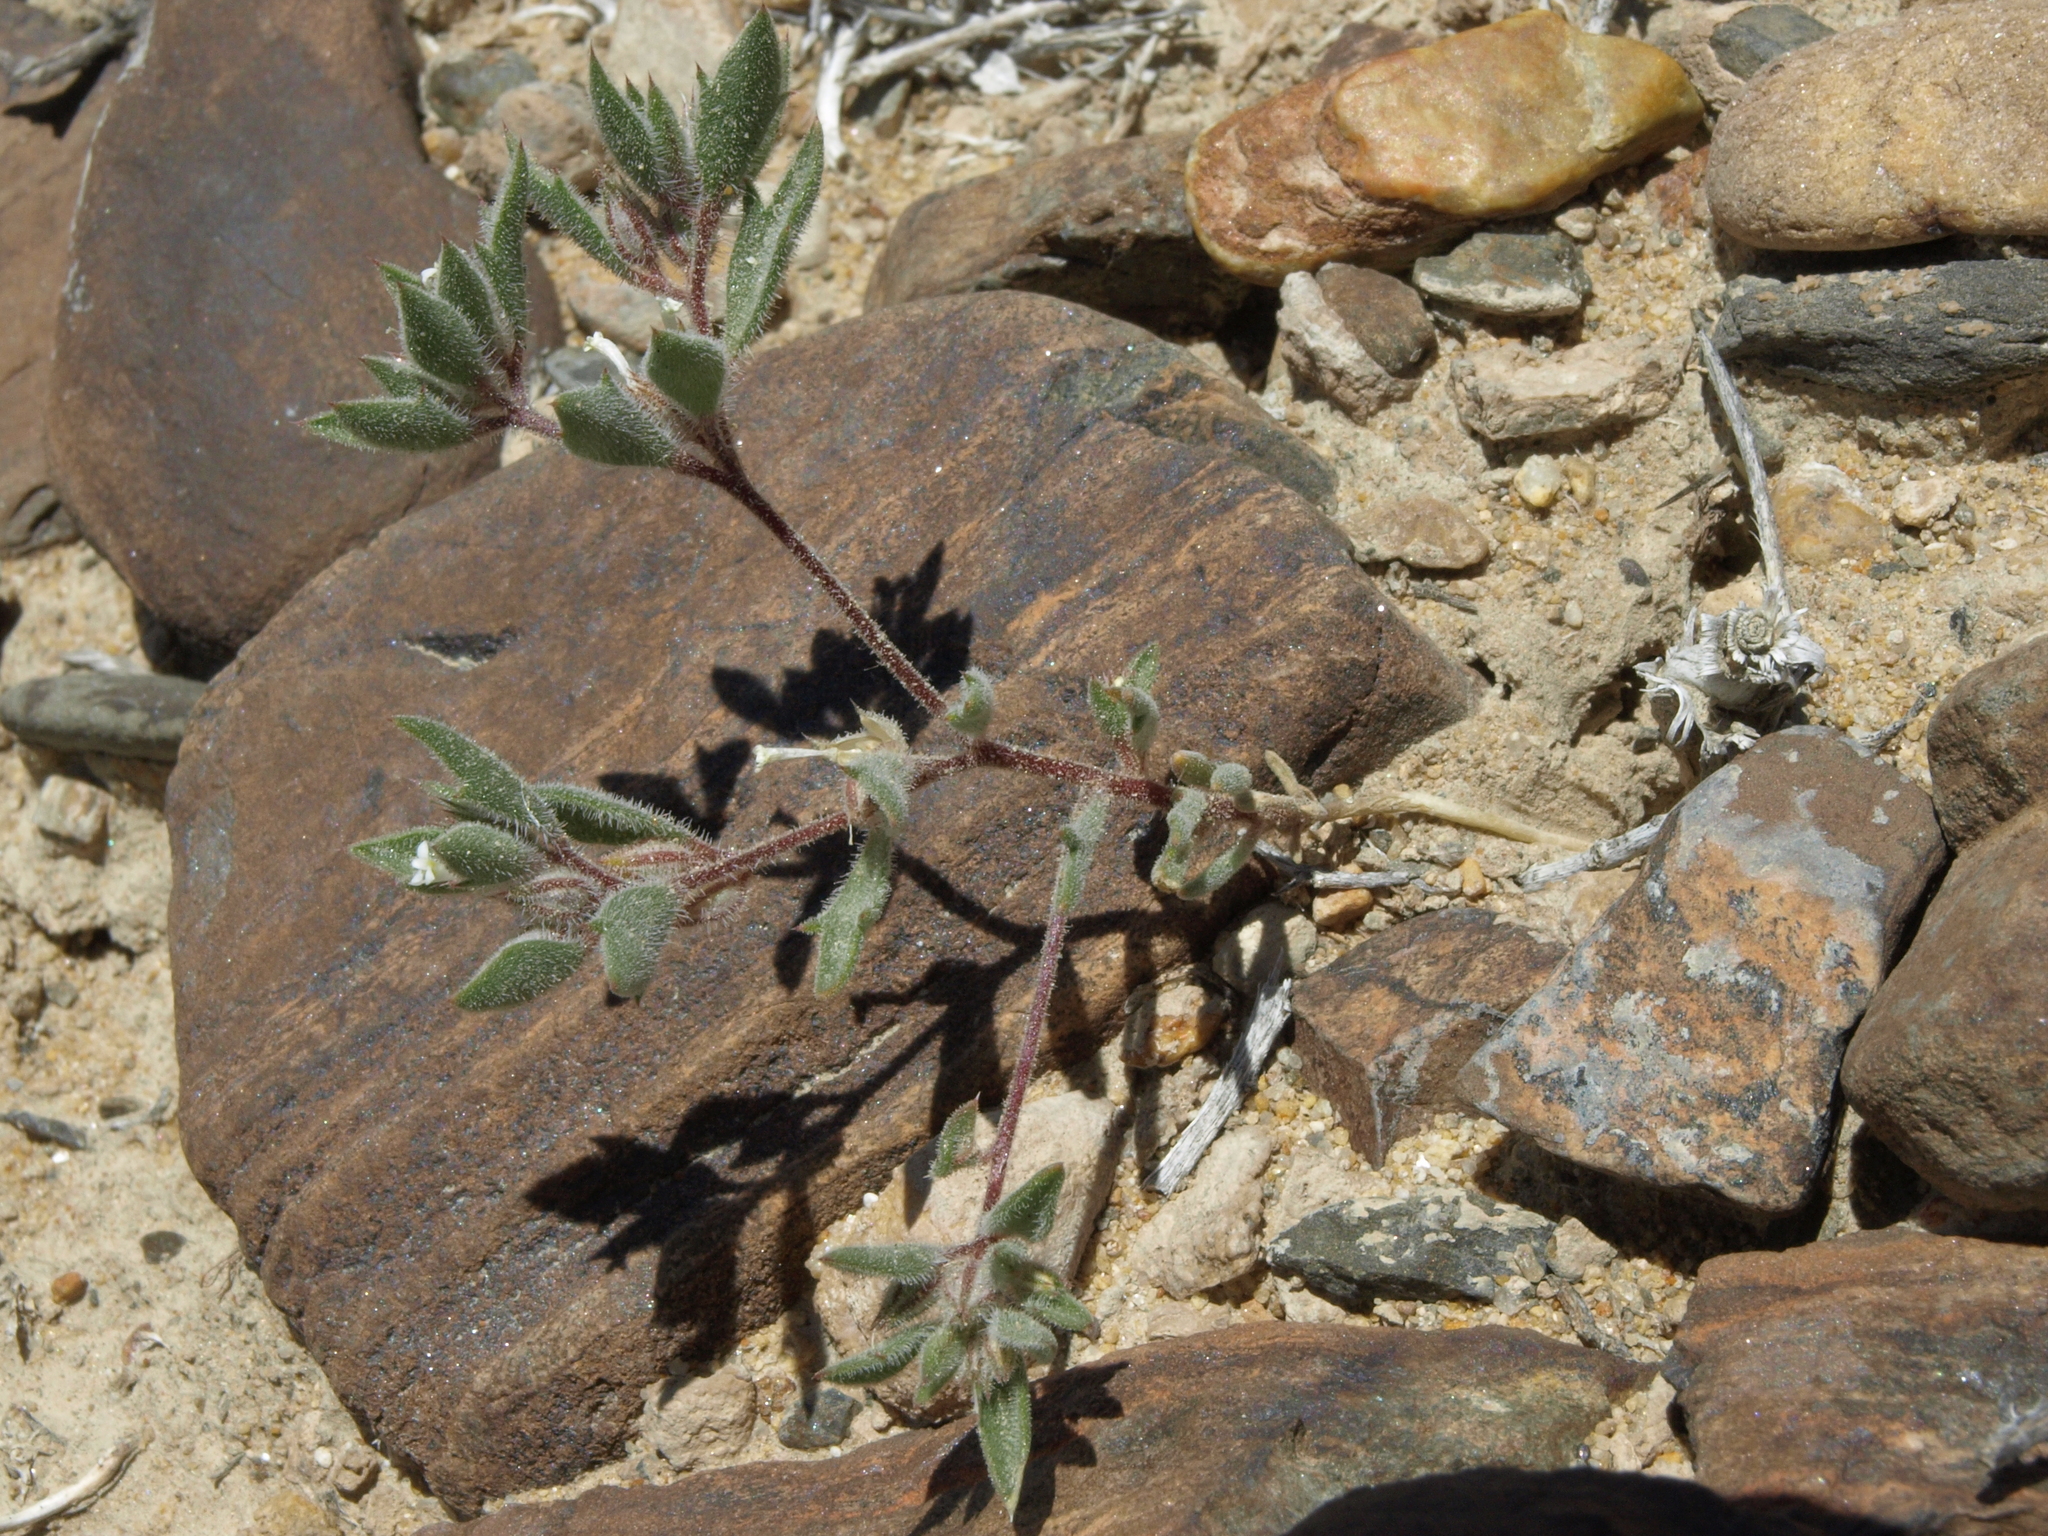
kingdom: Plantae
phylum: Tracheophyta
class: Magnoliopsida
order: Ericales
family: Polemoniaceae
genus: Loeseliastrum
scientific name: Loeseliastrum depressum
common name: Depressed ipomopsis
